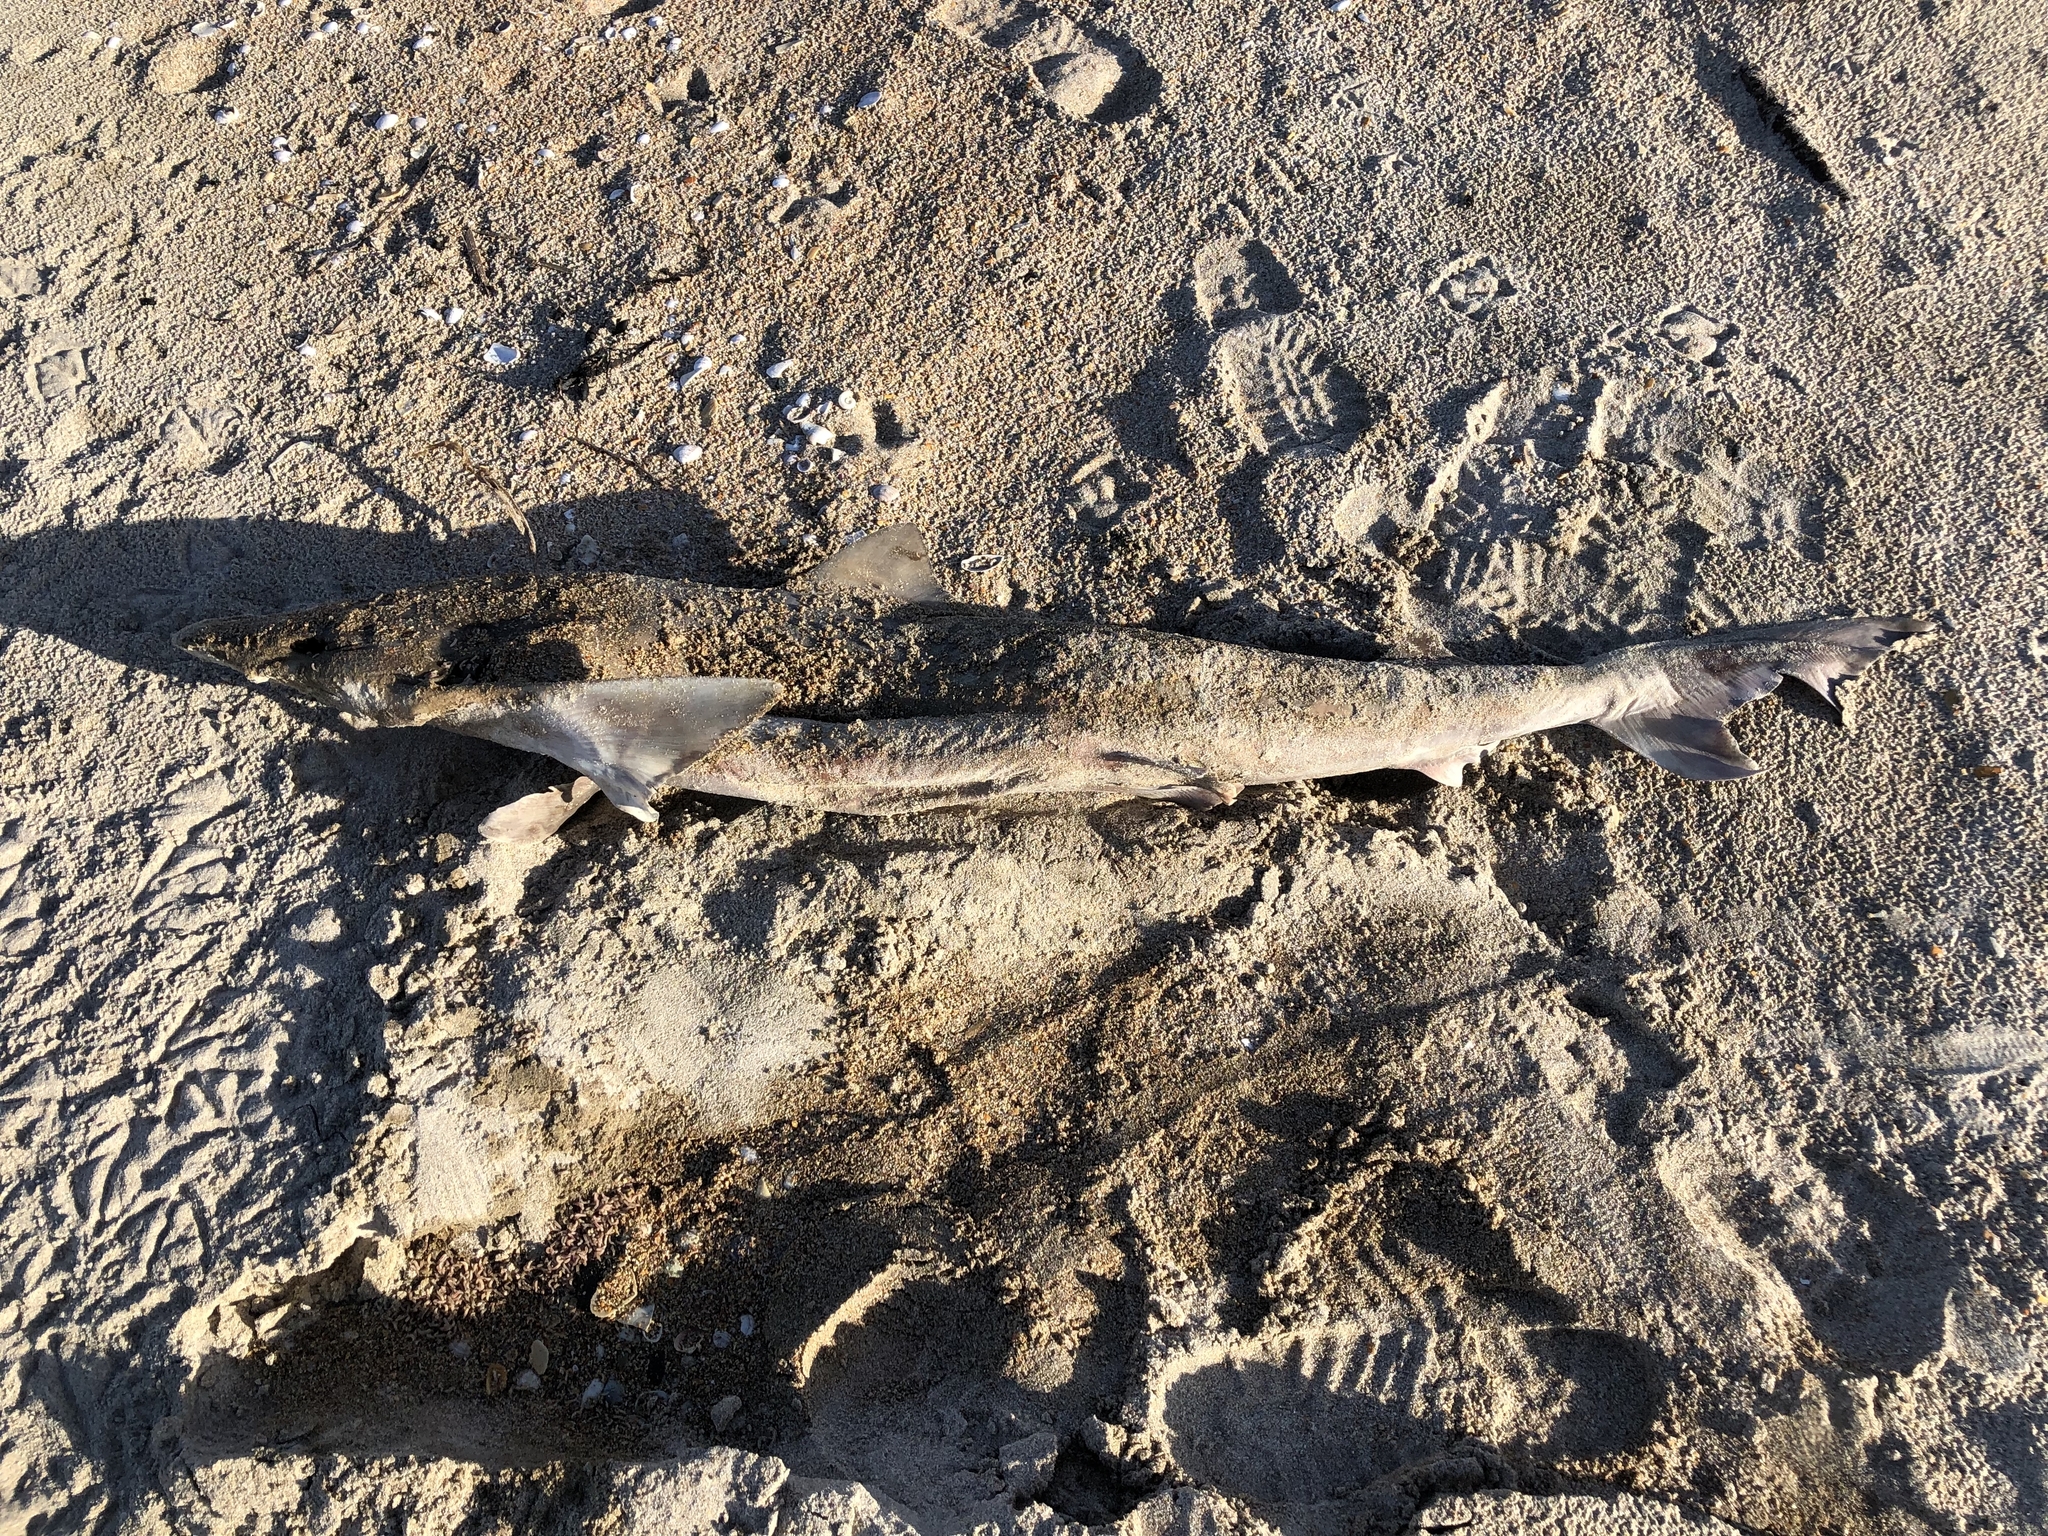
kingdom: Animalia
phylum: Chordata
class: Elasmobranchii
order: Carcharhiniformes
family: Triakidae
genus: Galeorhinus
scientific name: Galeorhinus galeus
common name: Tope
